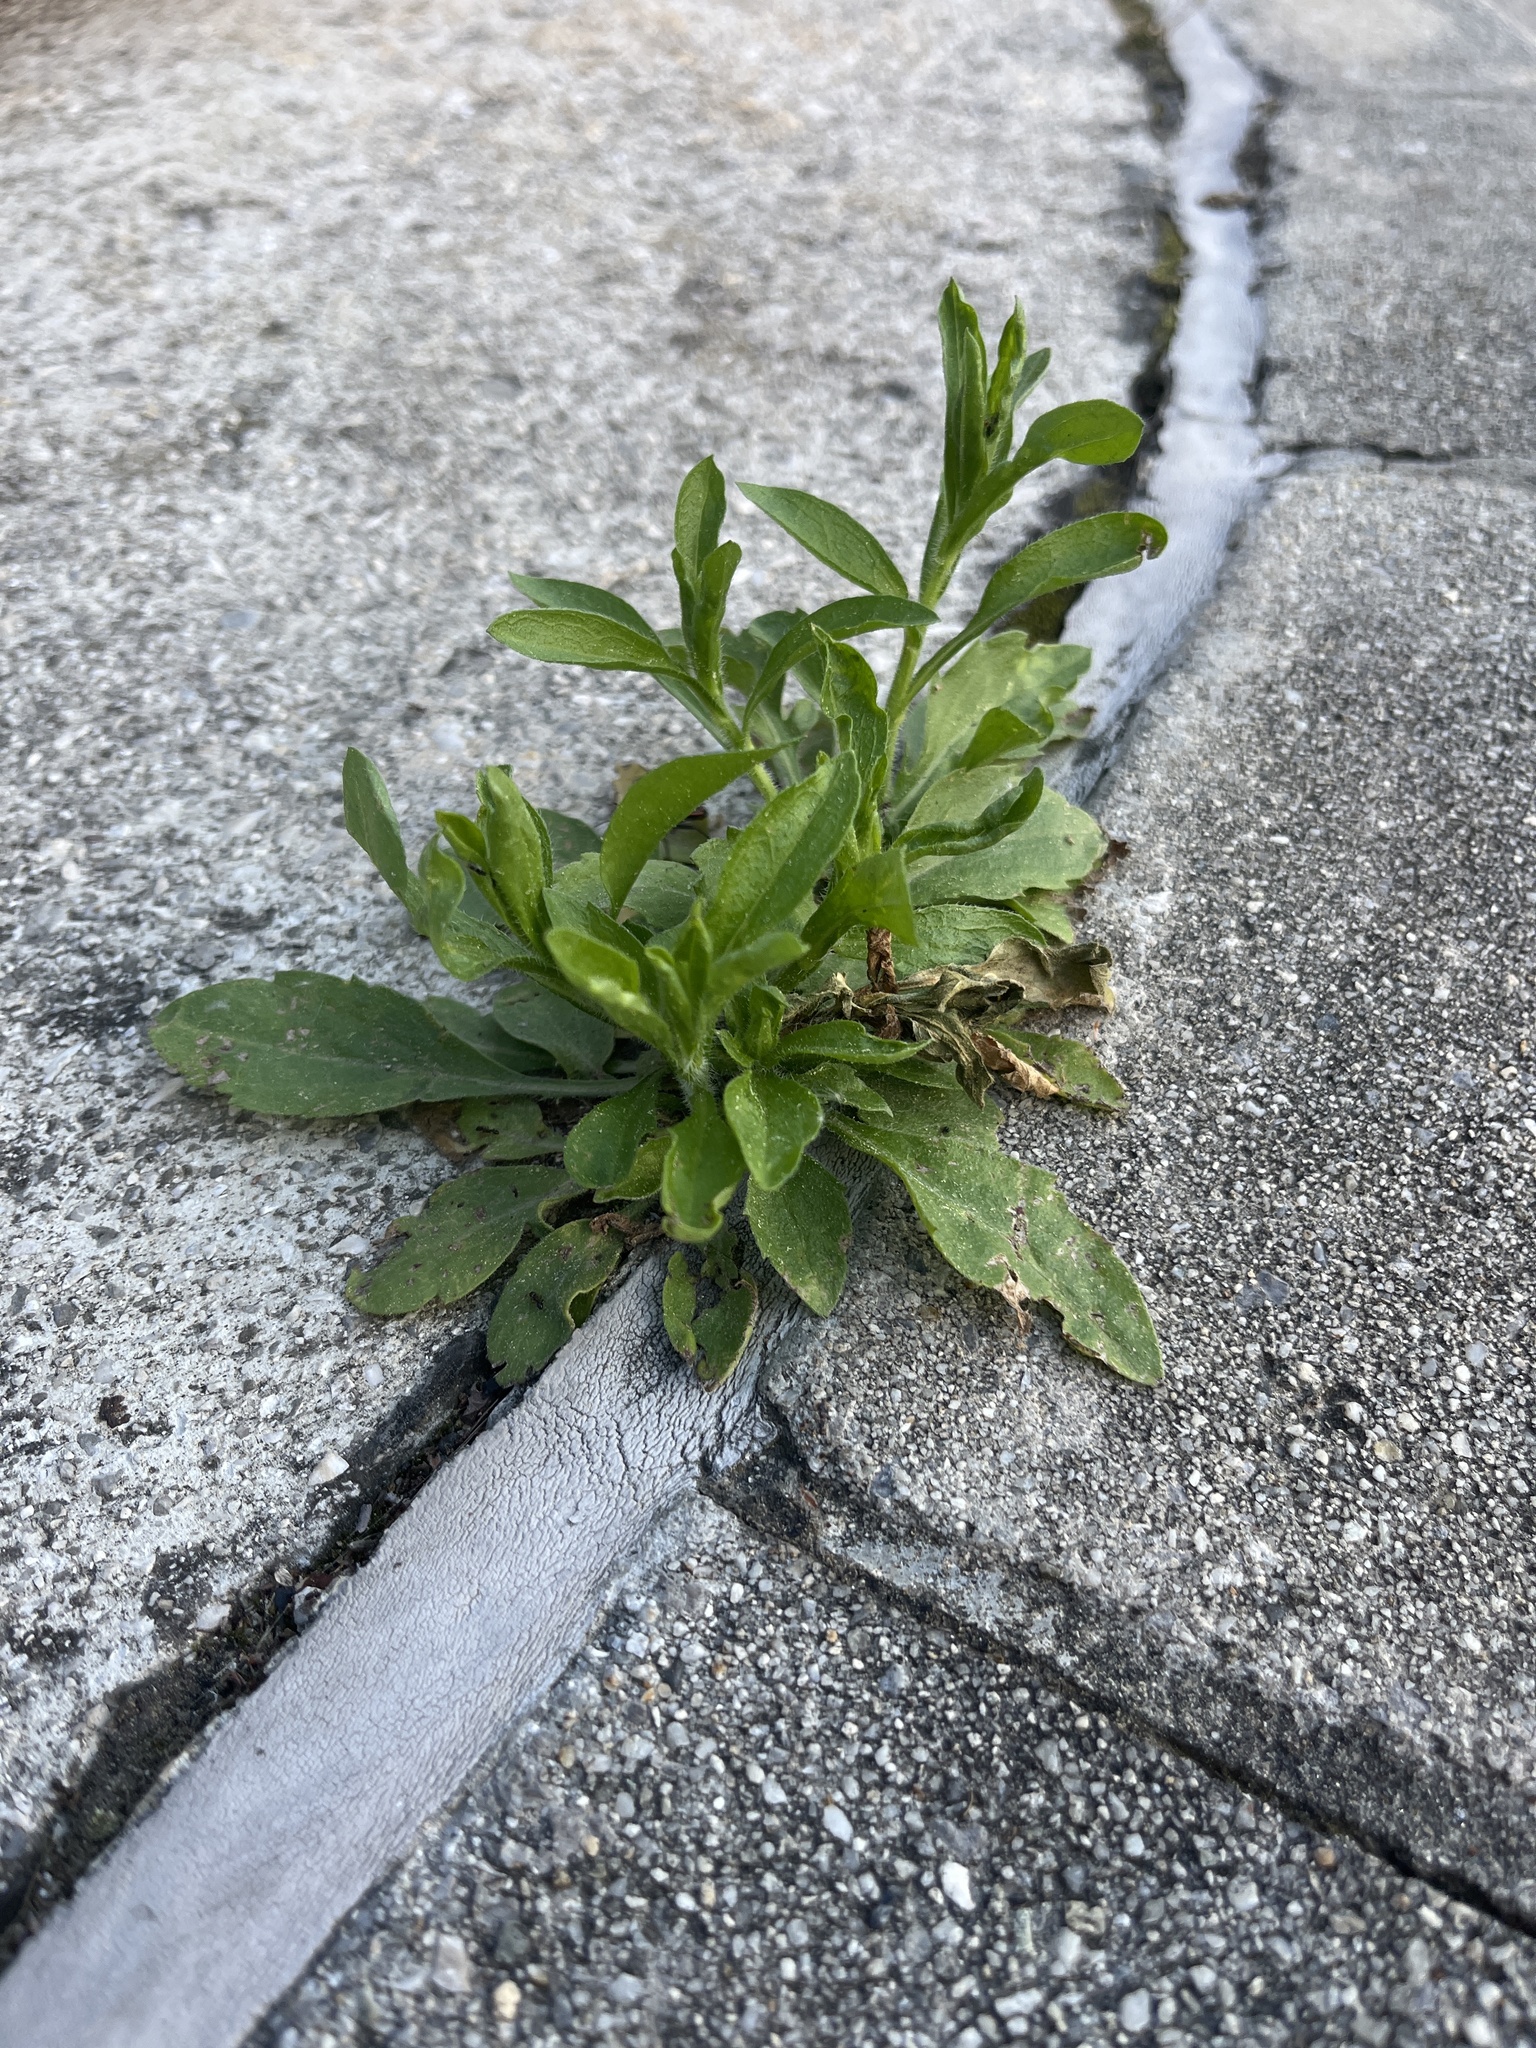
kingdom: Plantae
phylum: Tracheophyta
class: Magnoliopsida
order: Asterales
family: Asteraceae
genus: Erigeron
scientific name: Erigeron annuus
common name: Tall fleabane
